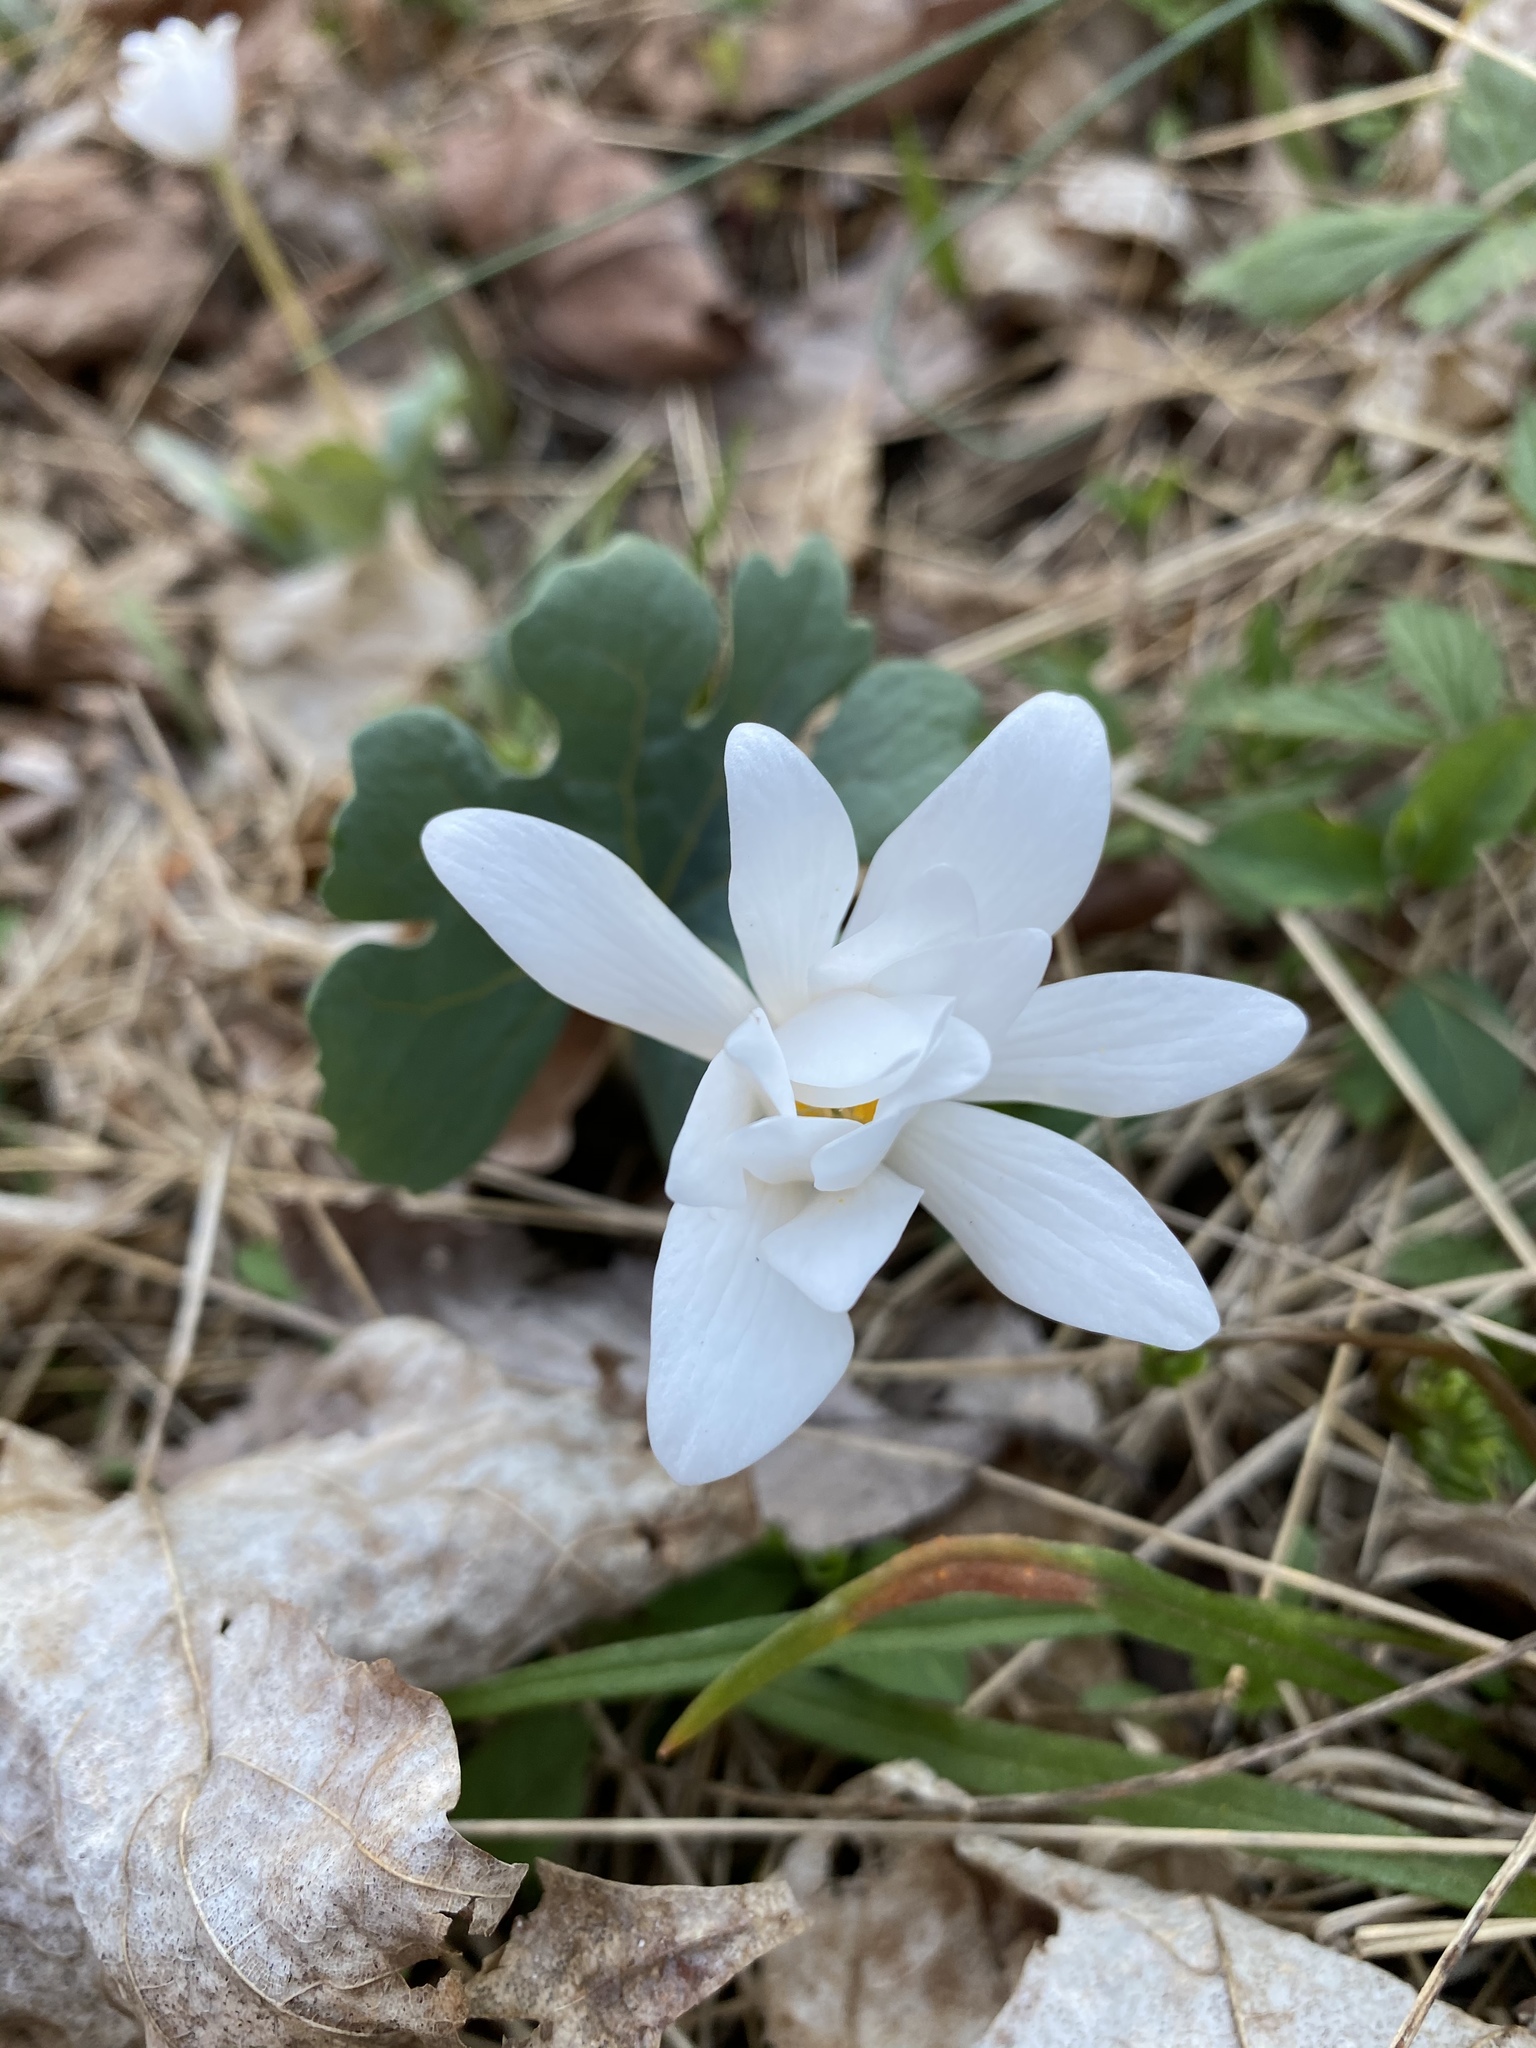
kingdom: Plantae
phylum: Tracheophyta
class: Magnoliopsida
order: Ranunculales
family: Papaveraceae
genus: Sanguinaria
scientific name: Sanguinaria canadensis
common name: Bloodroot
